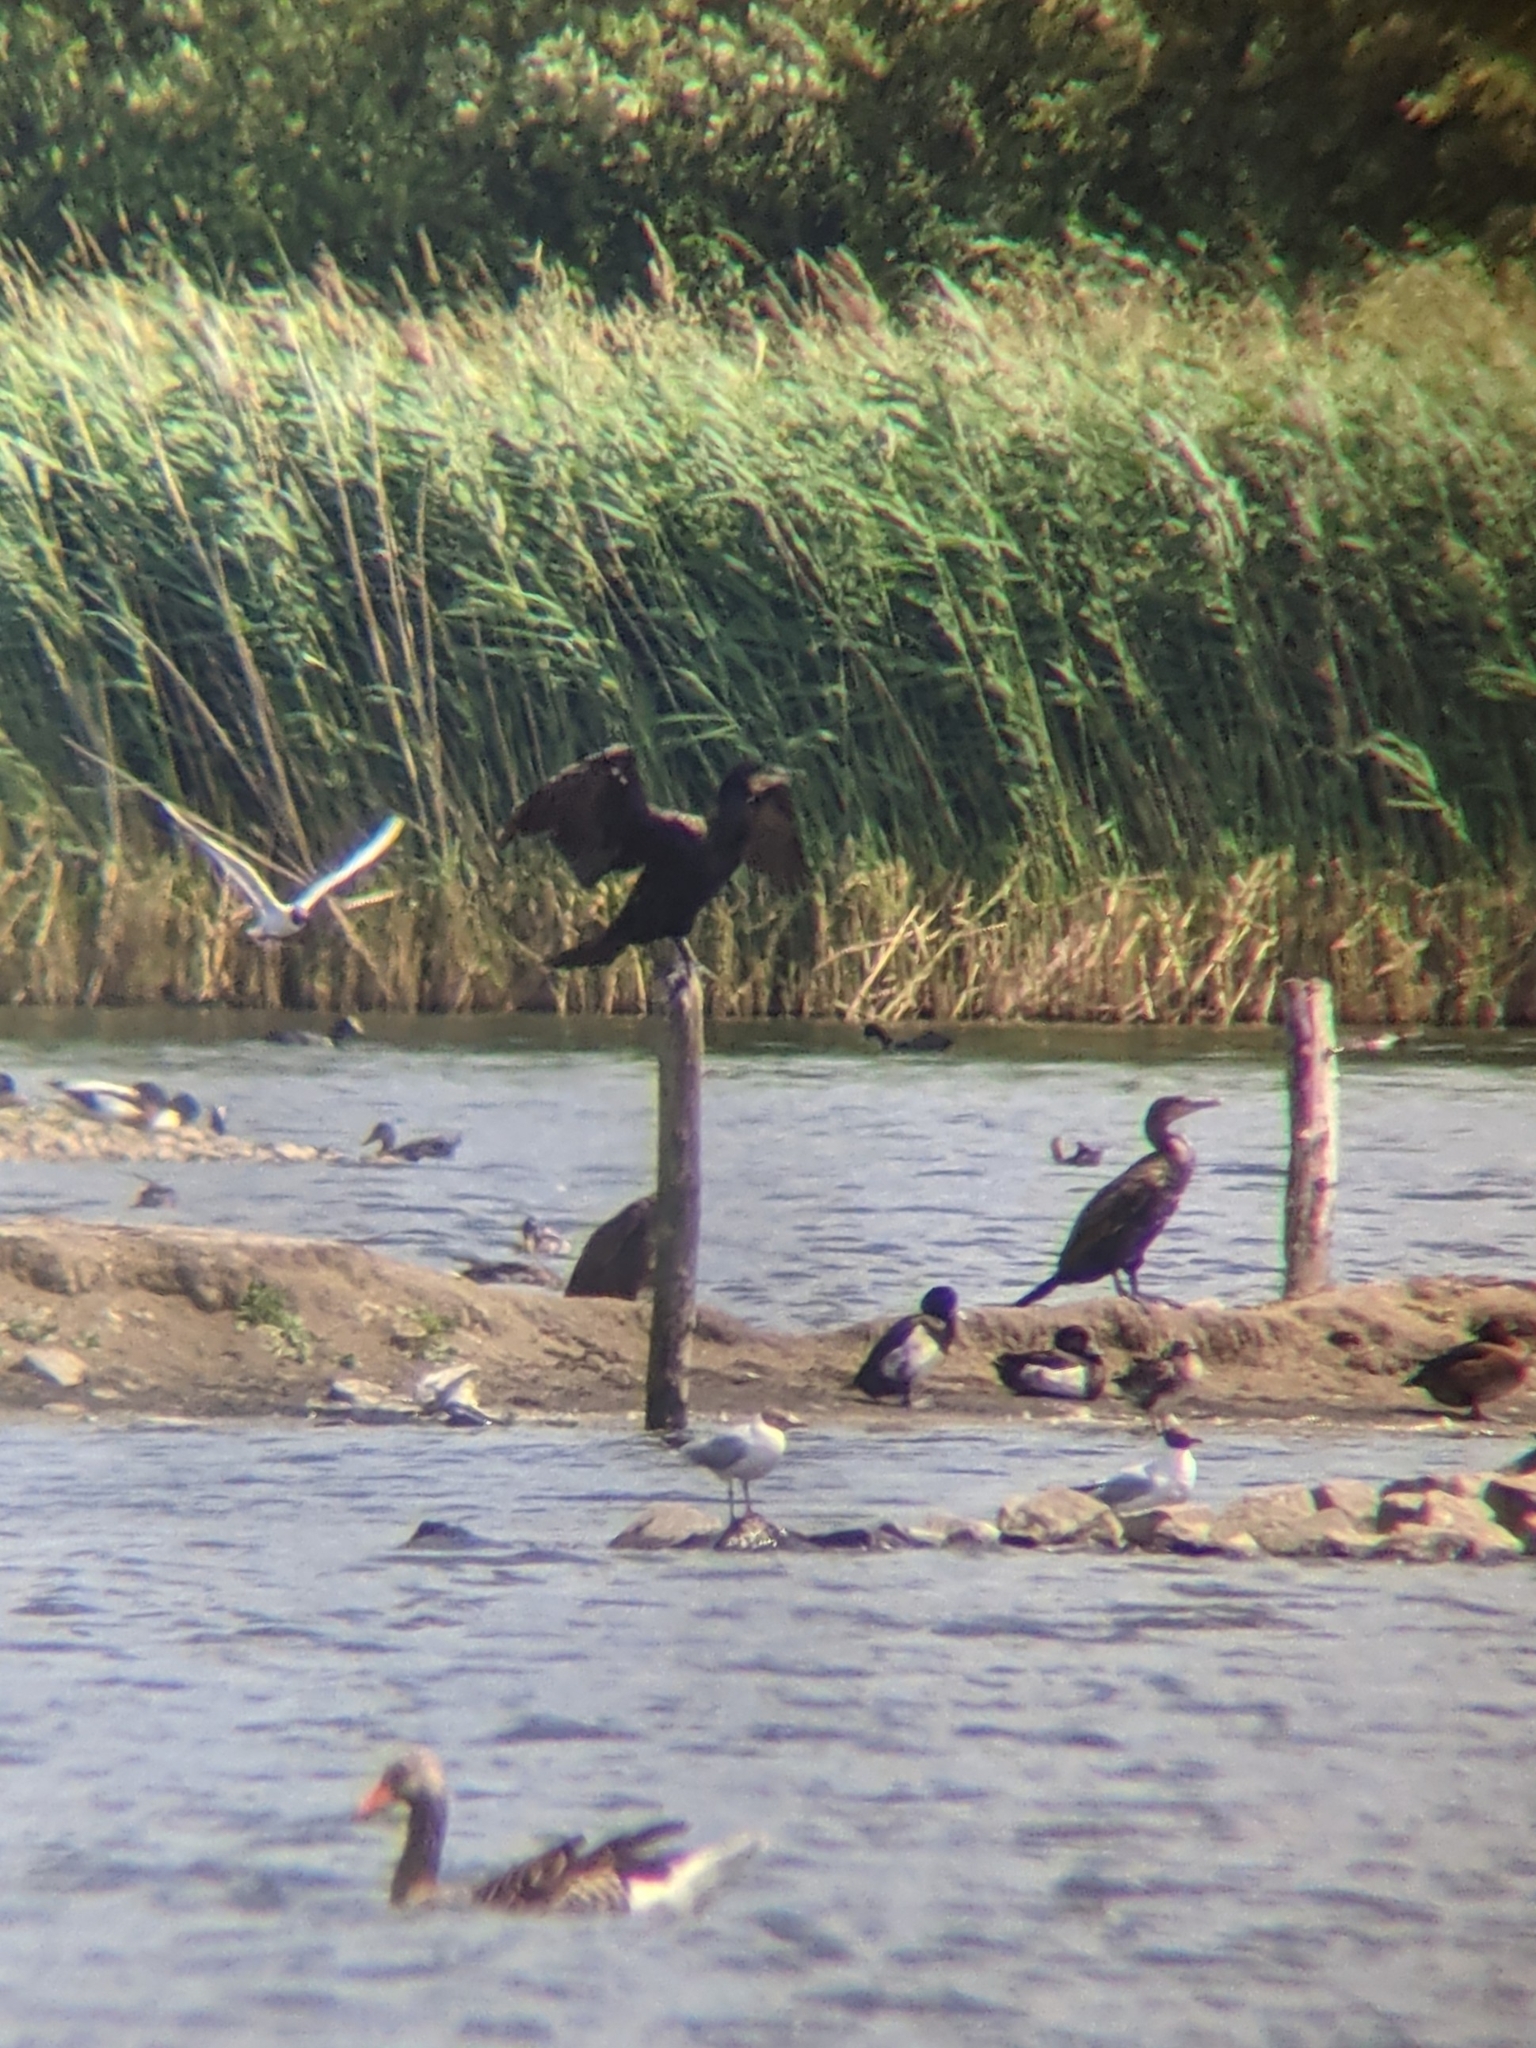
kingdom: Animalia
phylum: Chordata
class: Aves
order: Suliformes
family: Phalacrocoracidae
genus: Phalacrocorax
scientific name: Phalacrocorax carbo
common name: Great cormorant
